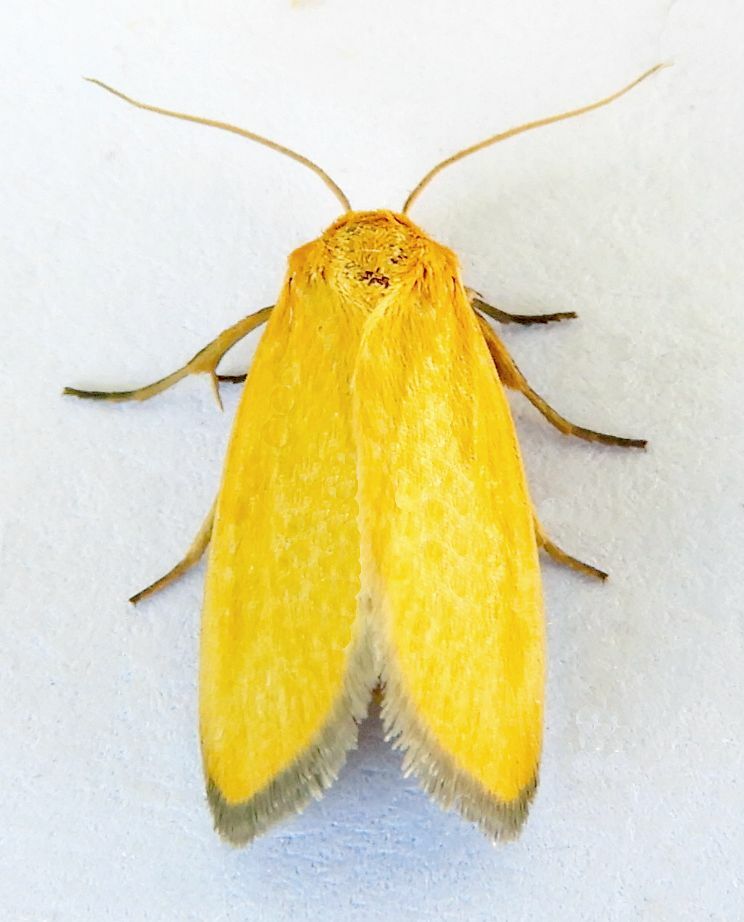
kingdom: Animalia
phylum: Arthropoda
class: Insecta
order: Lepidoptera
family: Noctuidae
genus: Antaplaga
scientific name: Antaplaga Eulithosia composita
